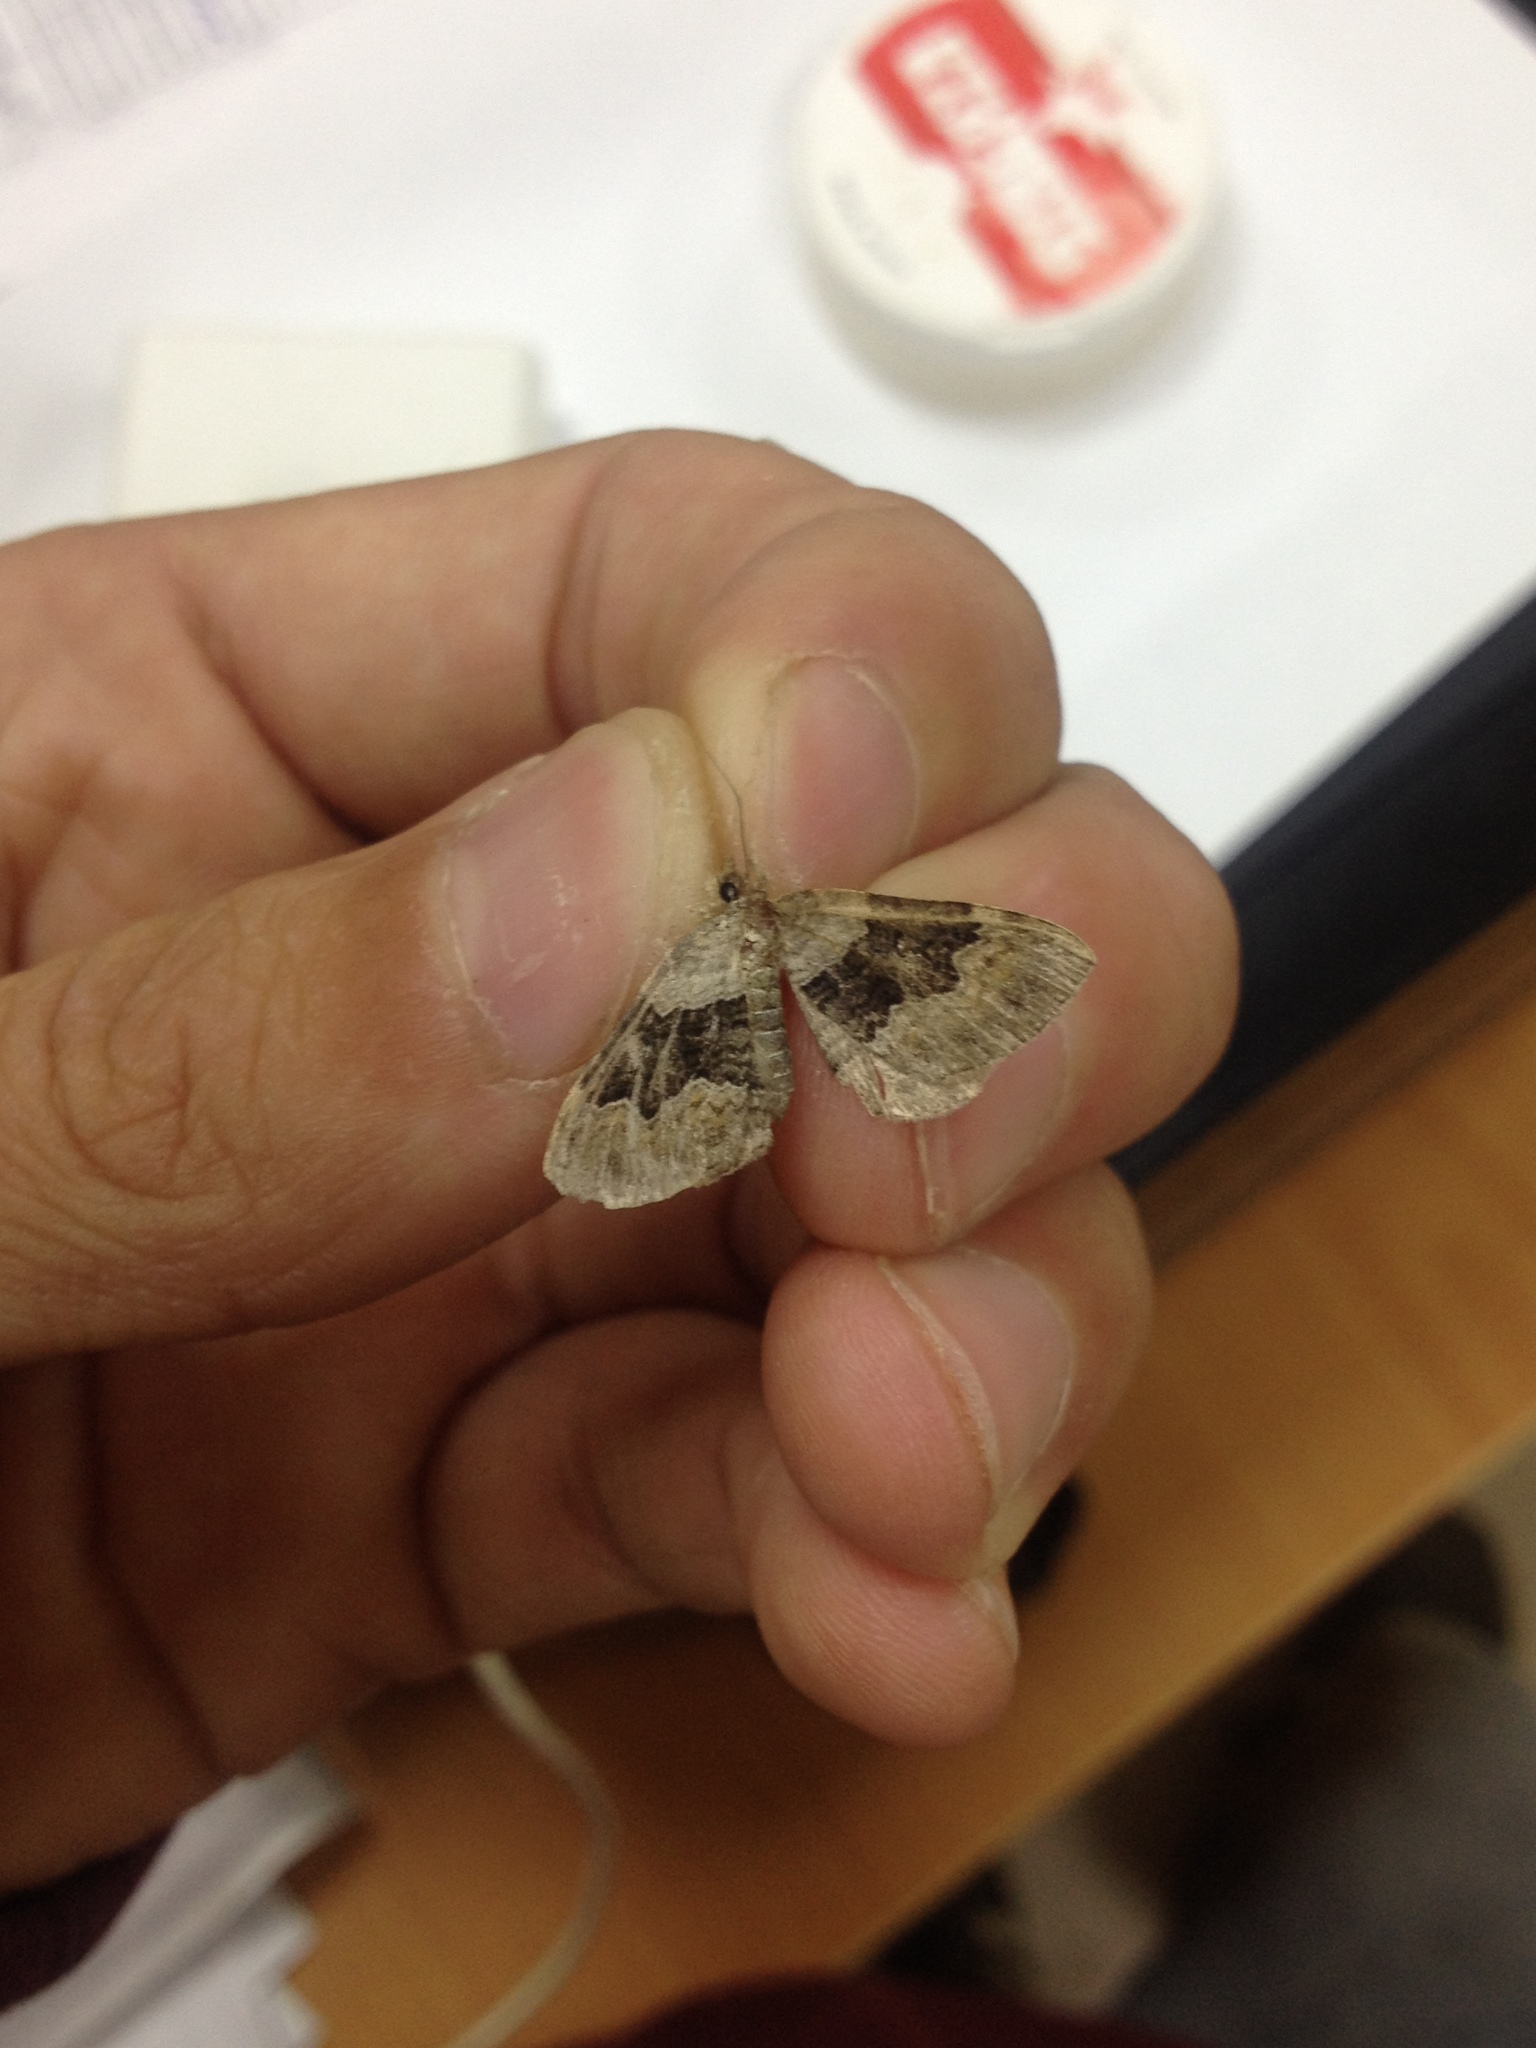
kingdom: Animalia
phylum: Arthropoda
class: Insecta
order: Lepidoptera
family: Geometridae
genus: Xanthorhoe
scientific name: Xanthorhoe quadrifasiata
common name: Large twin-spot carpet
